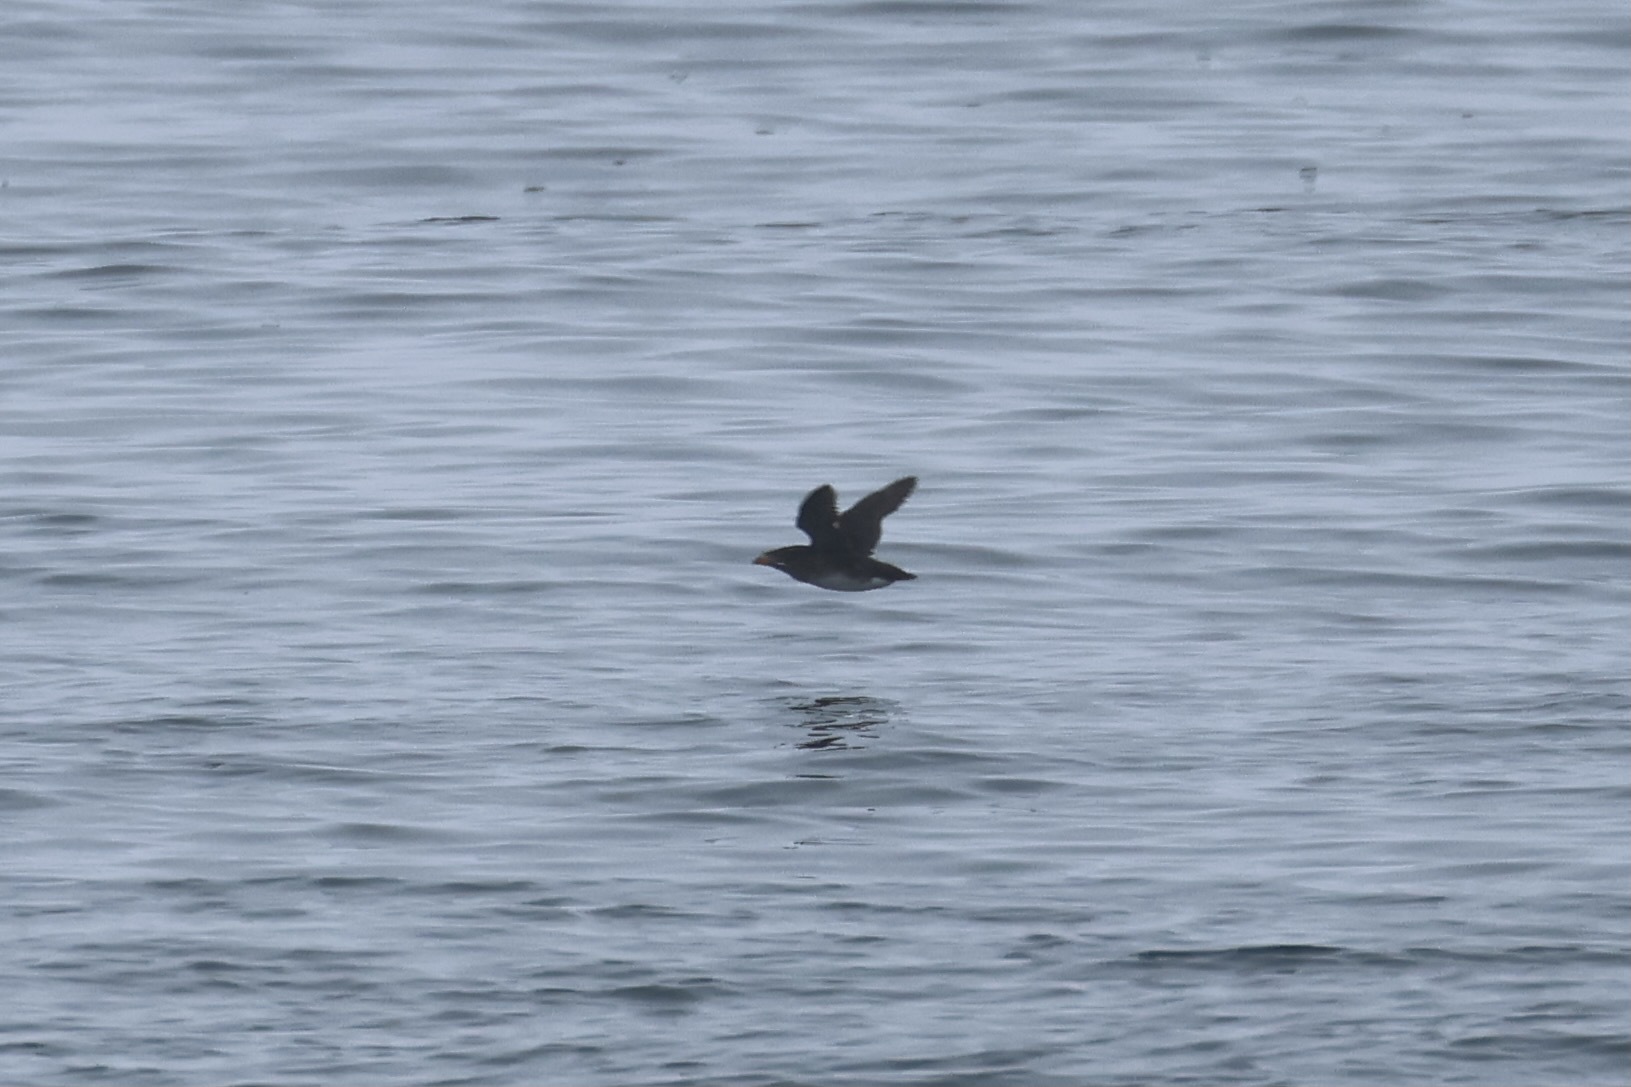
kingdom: Animalia
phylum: Chordata
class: Aves
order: Charadriiformes
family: Alcidae
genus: Cerorhinca
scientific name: Cerorhinca monocerata
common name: Rhinoceros auklet
